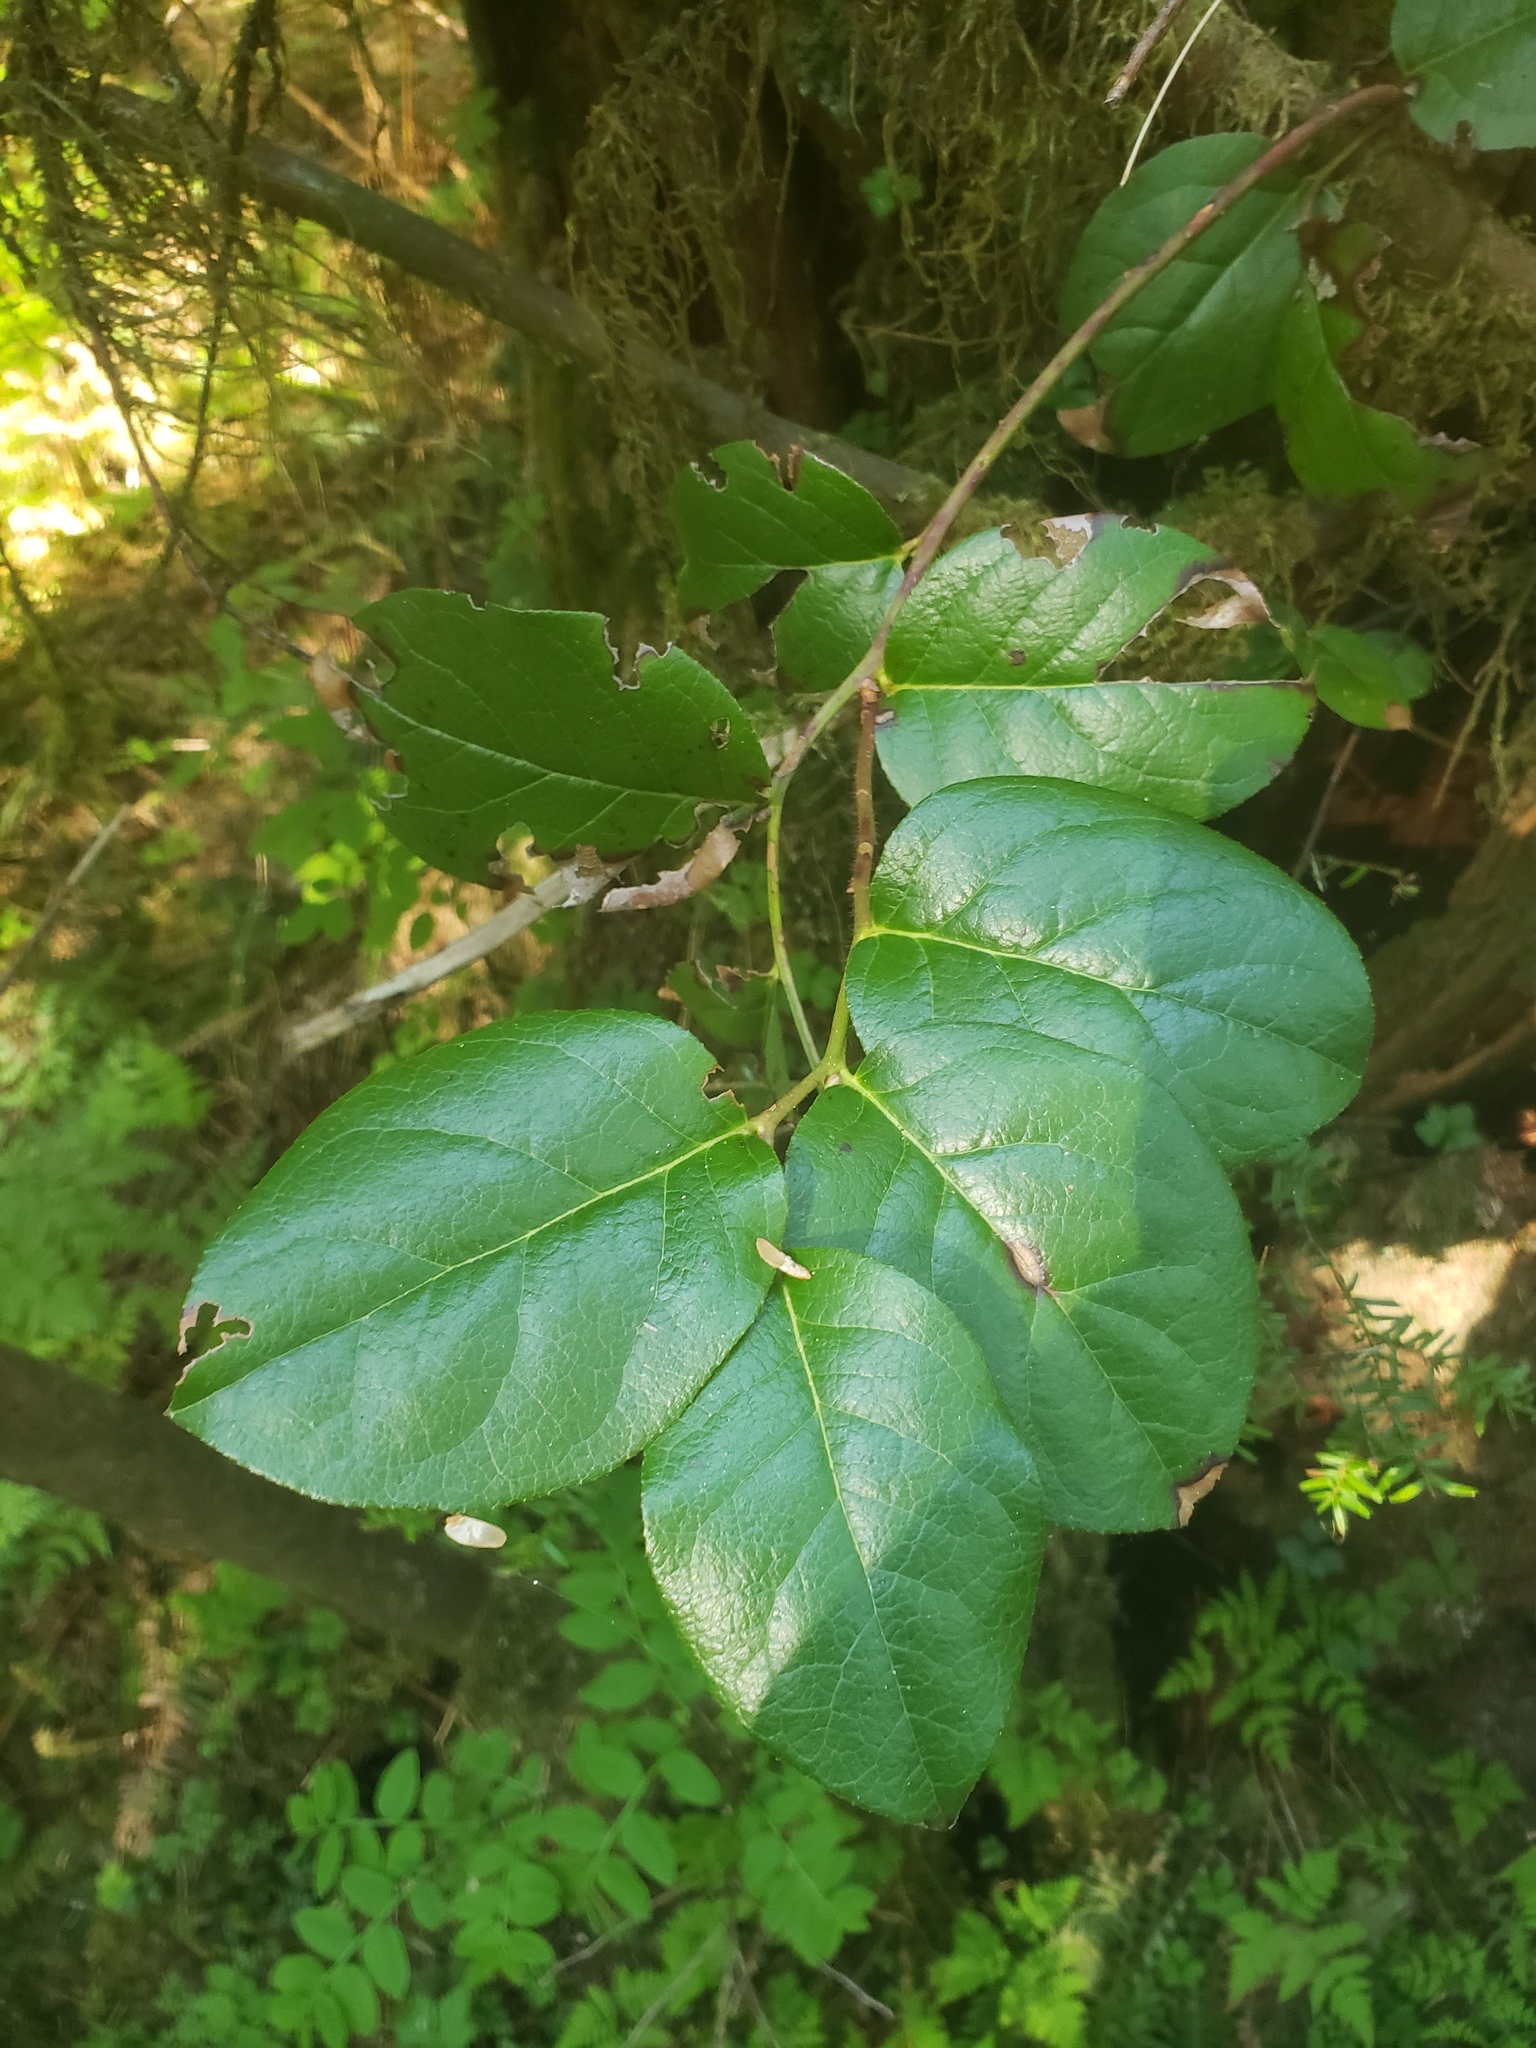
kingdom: Plantae
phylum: Tracheophyta
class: Magnoliopsida
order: Ericales
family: Ericaceae
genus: Gaultheria
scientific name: Gaultheria shallon
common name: Shallon
